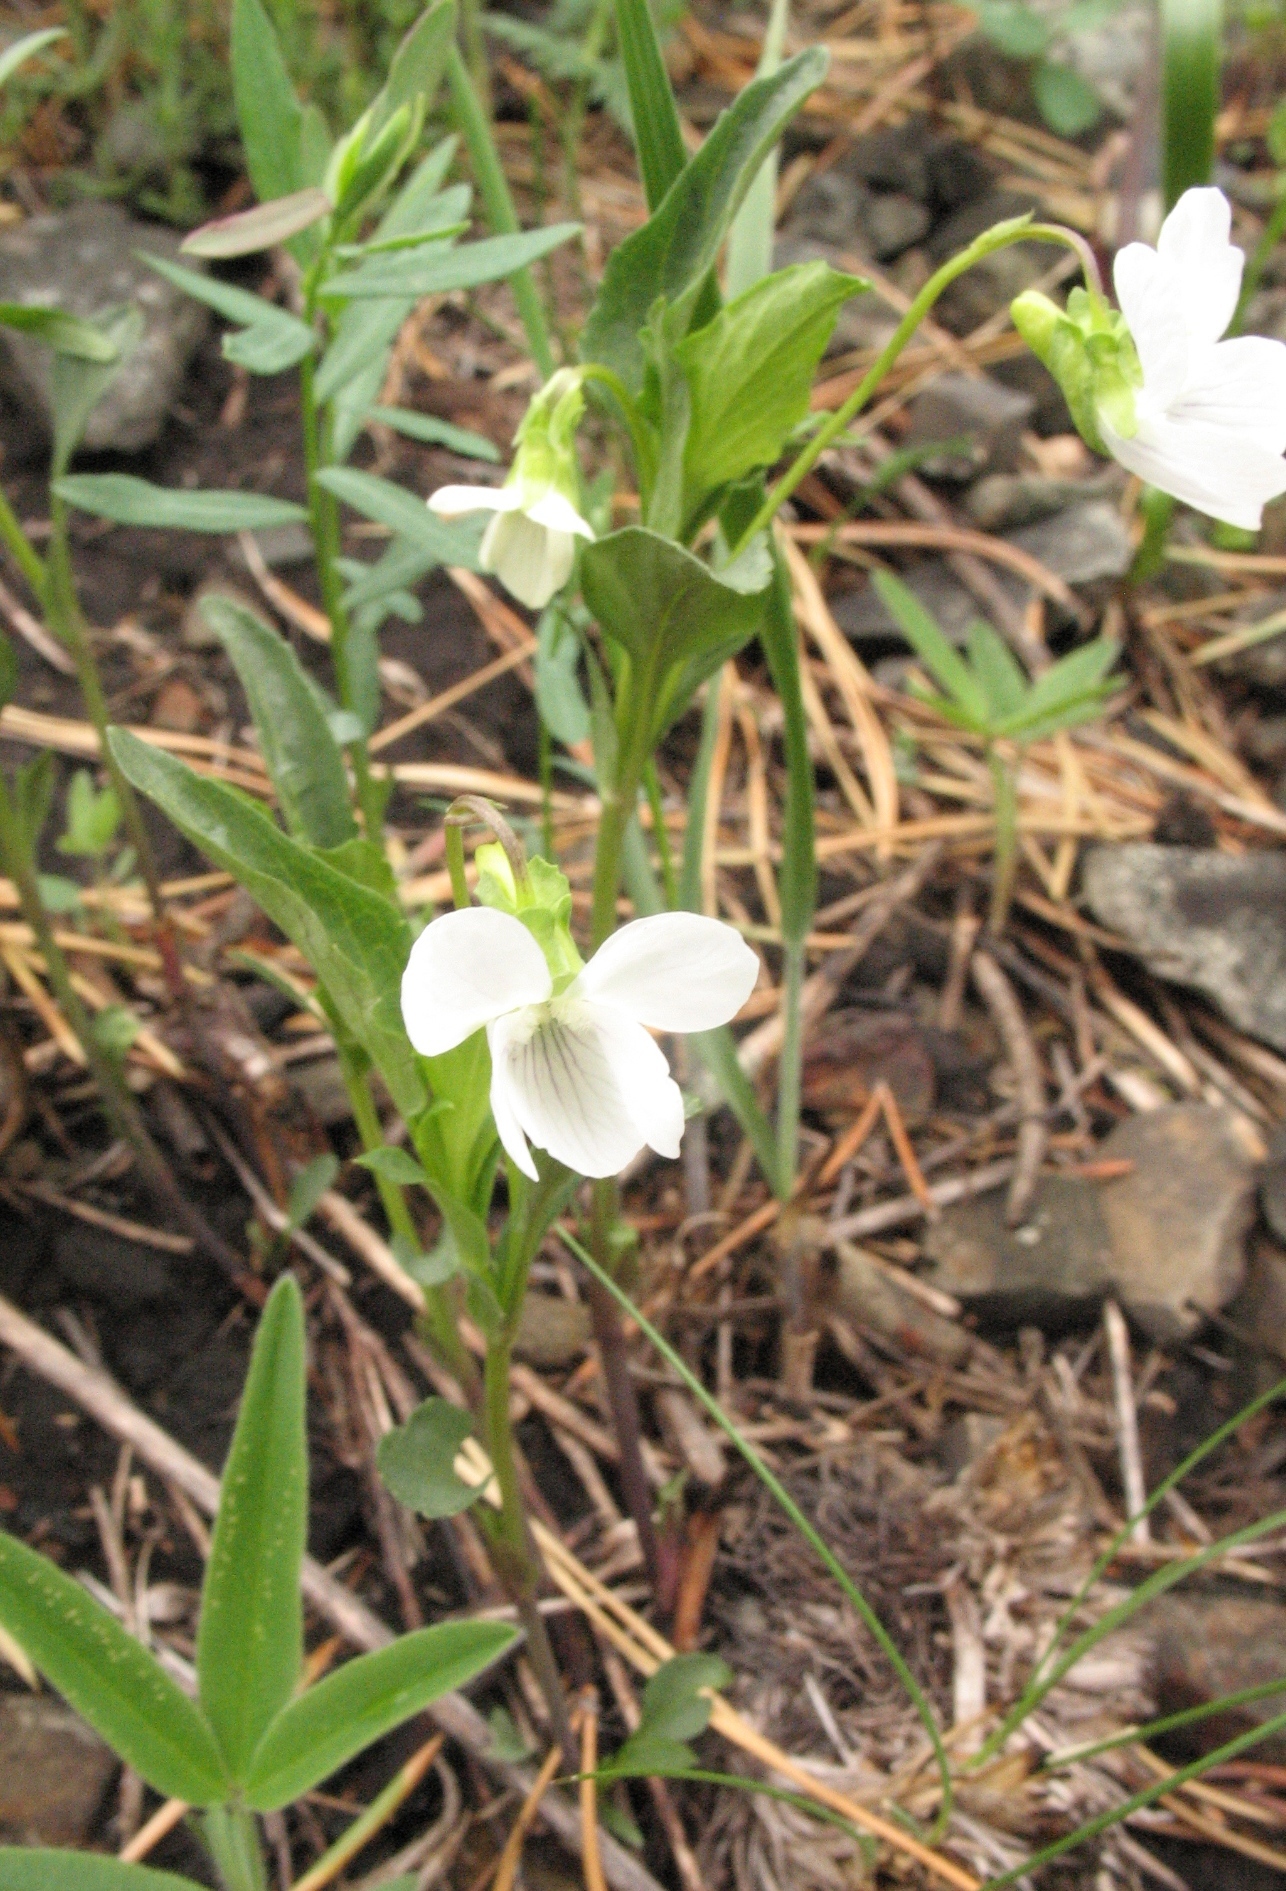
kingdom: Plantae
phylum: Tracheophyta
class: Magnoliopsida
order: Malpighiales
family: Violaceae
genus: Viola
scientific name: Viola pumila
